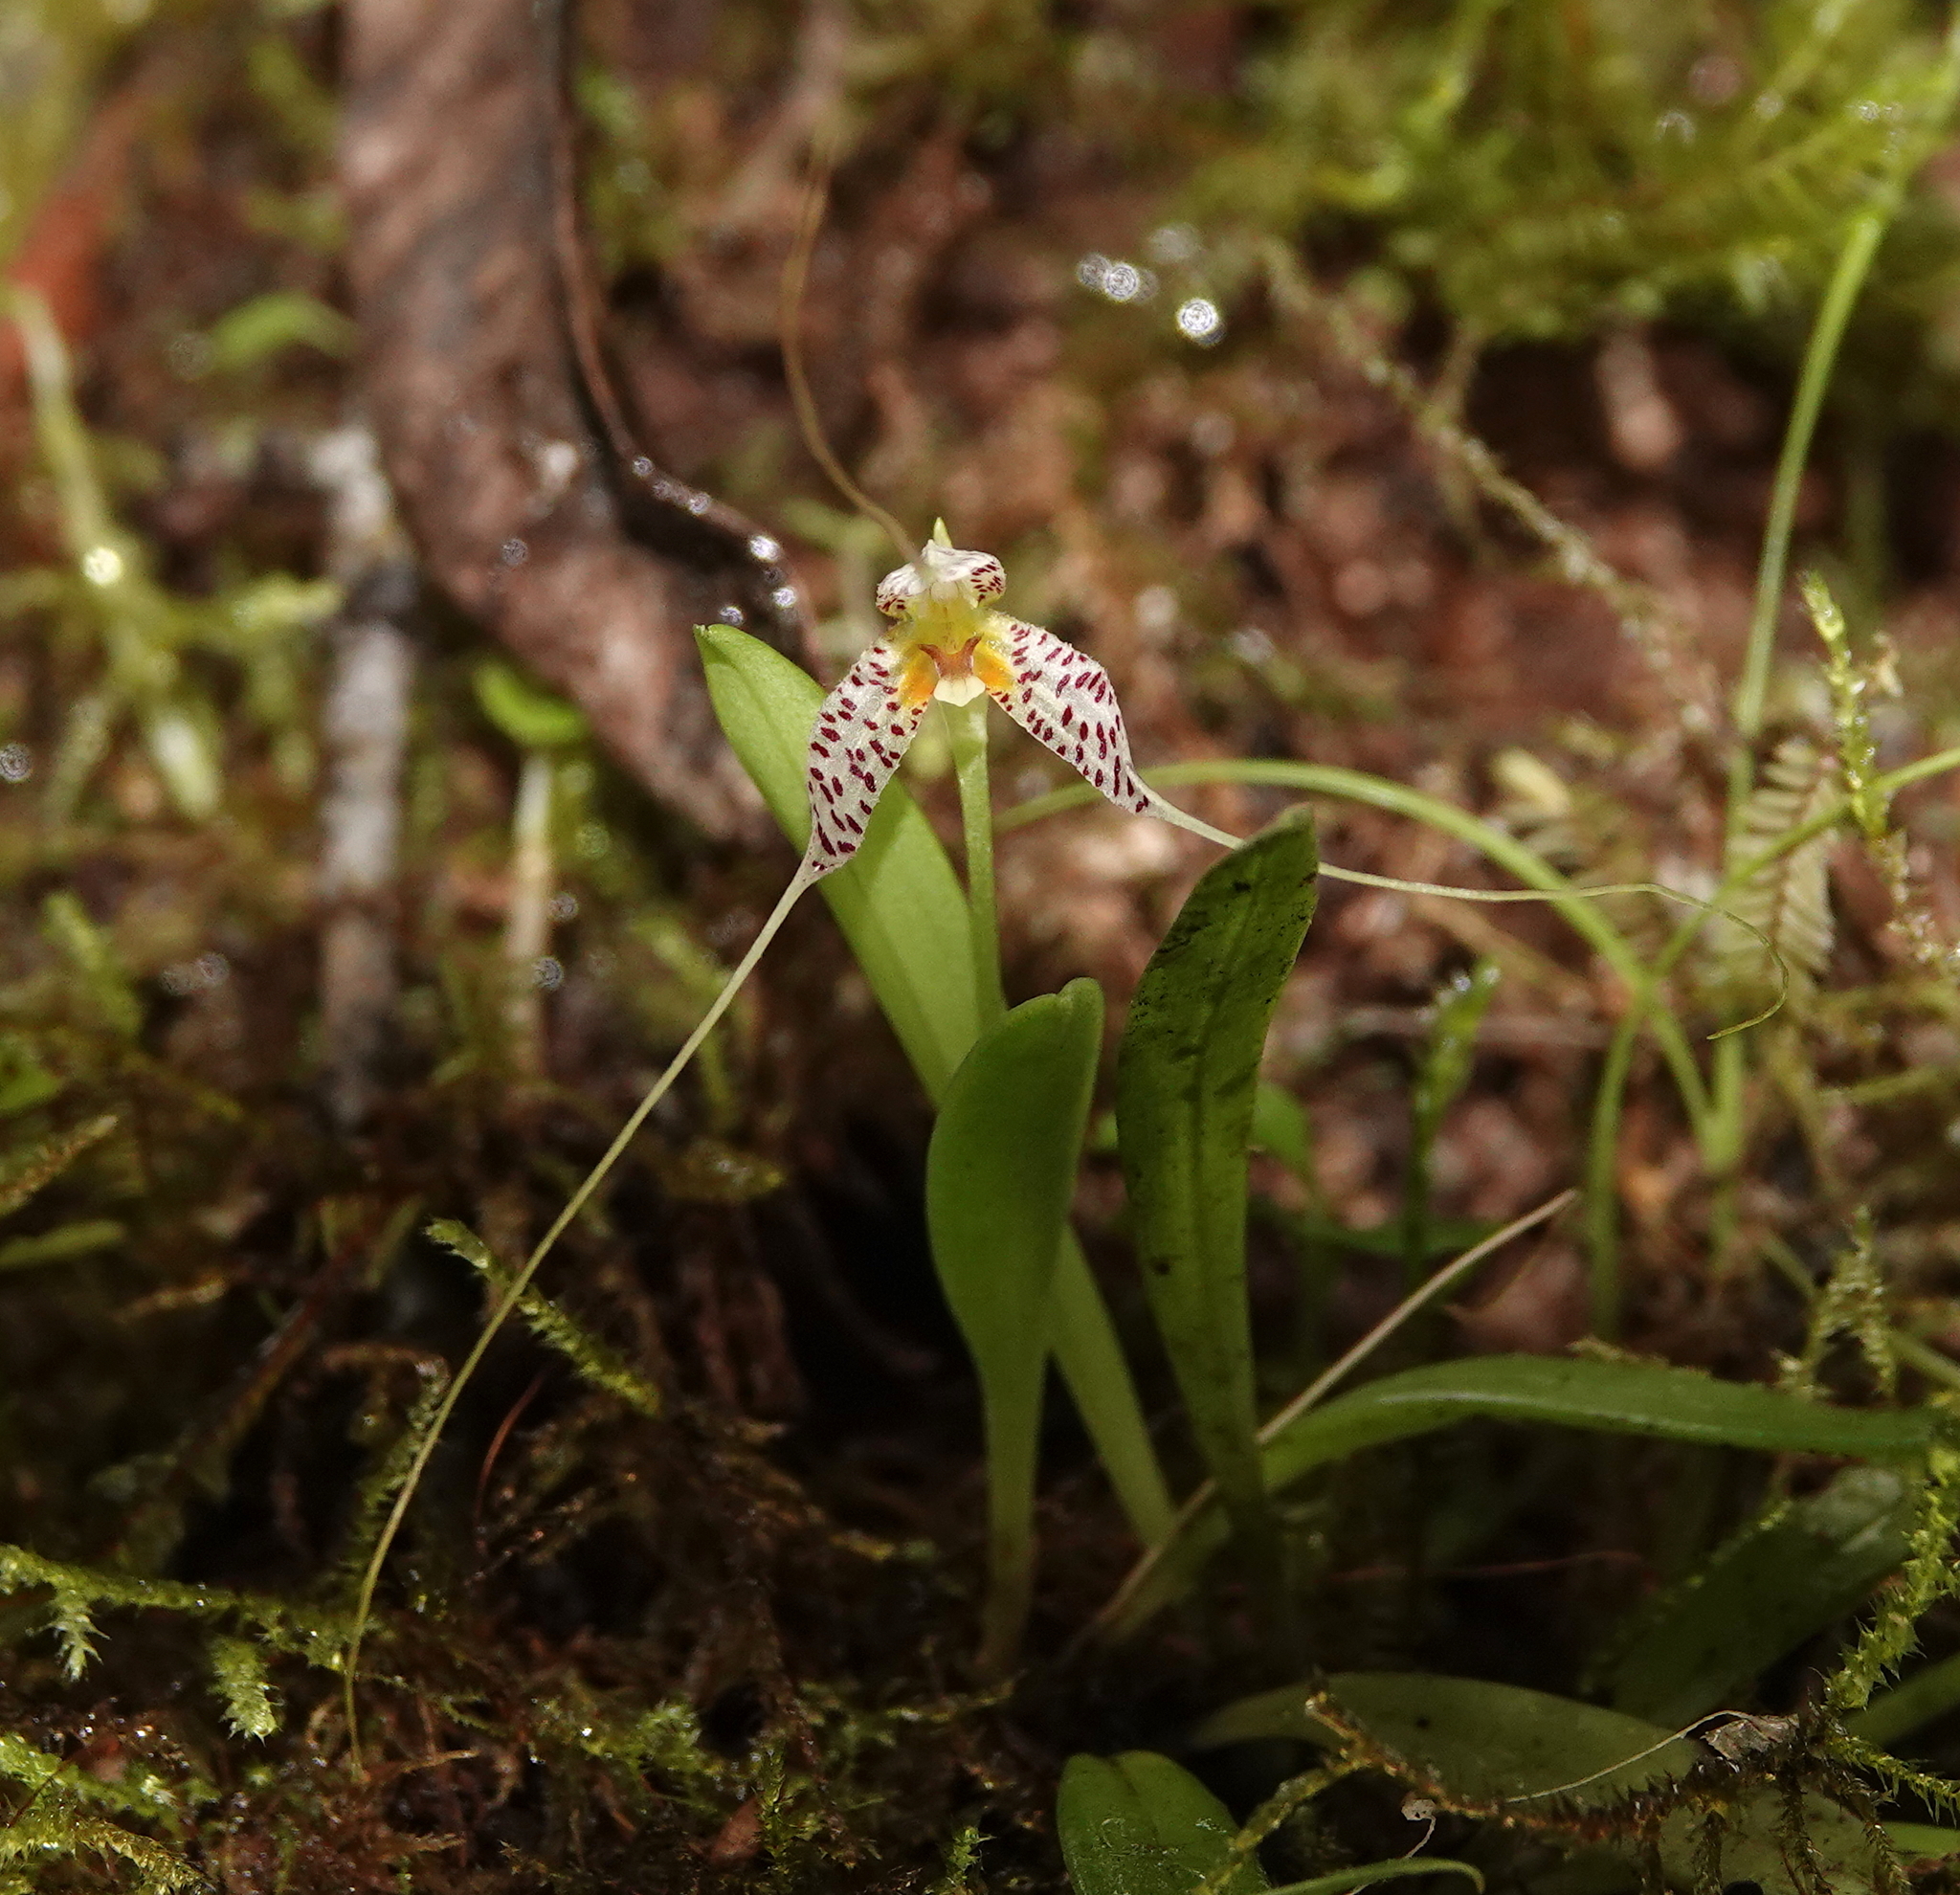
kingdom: Plantae
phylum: Tracheophyta
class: Liliopsida
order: Asparagales
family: Orchidaceae
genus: Masdevallia
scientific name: Masdevallia picturata
